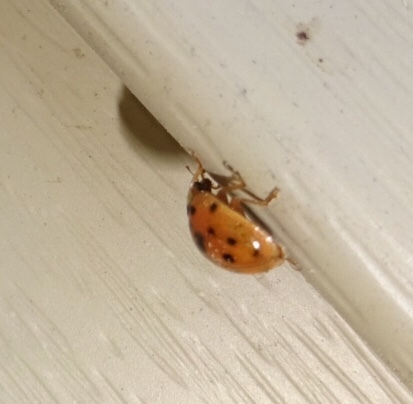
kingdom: Animalia
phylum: Arthropoda
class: Insecta
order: Coleoptera
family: Coccinellidae
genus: Harmonia
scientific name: Harmonia axyridis
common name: Harlequin ladybird
